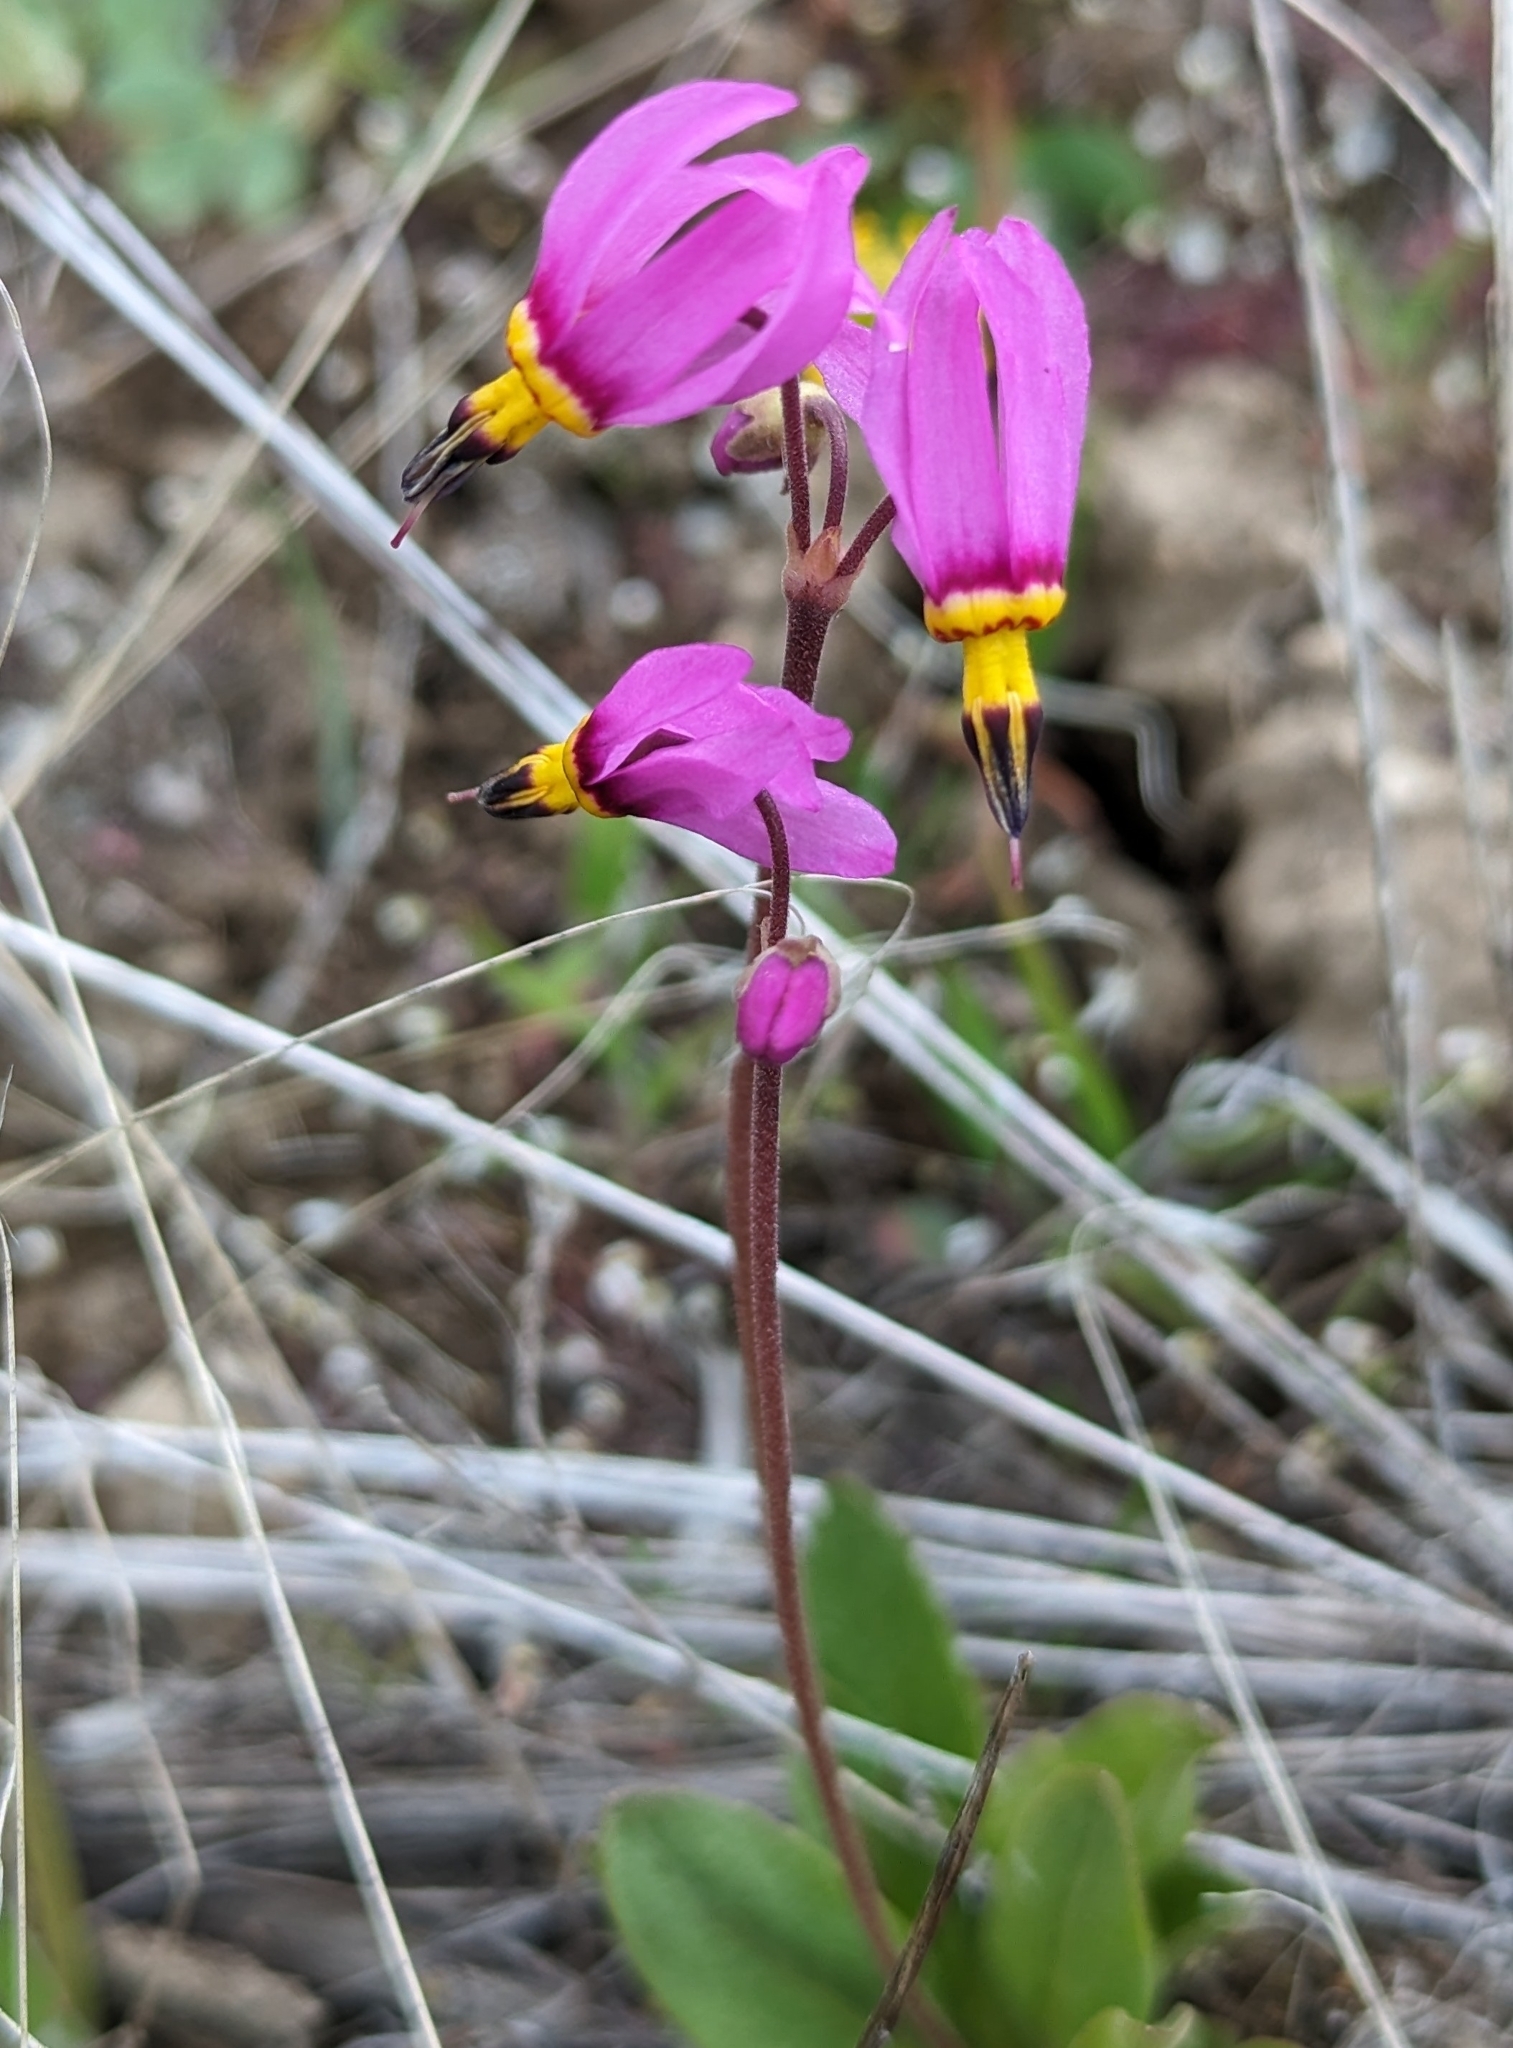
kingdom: Plantae
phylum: Tracheophyta
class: Magnoliopsida
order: Ericales
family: Primulaceae
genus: Dodecatheon
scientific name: Dodecatheon pulchellum
